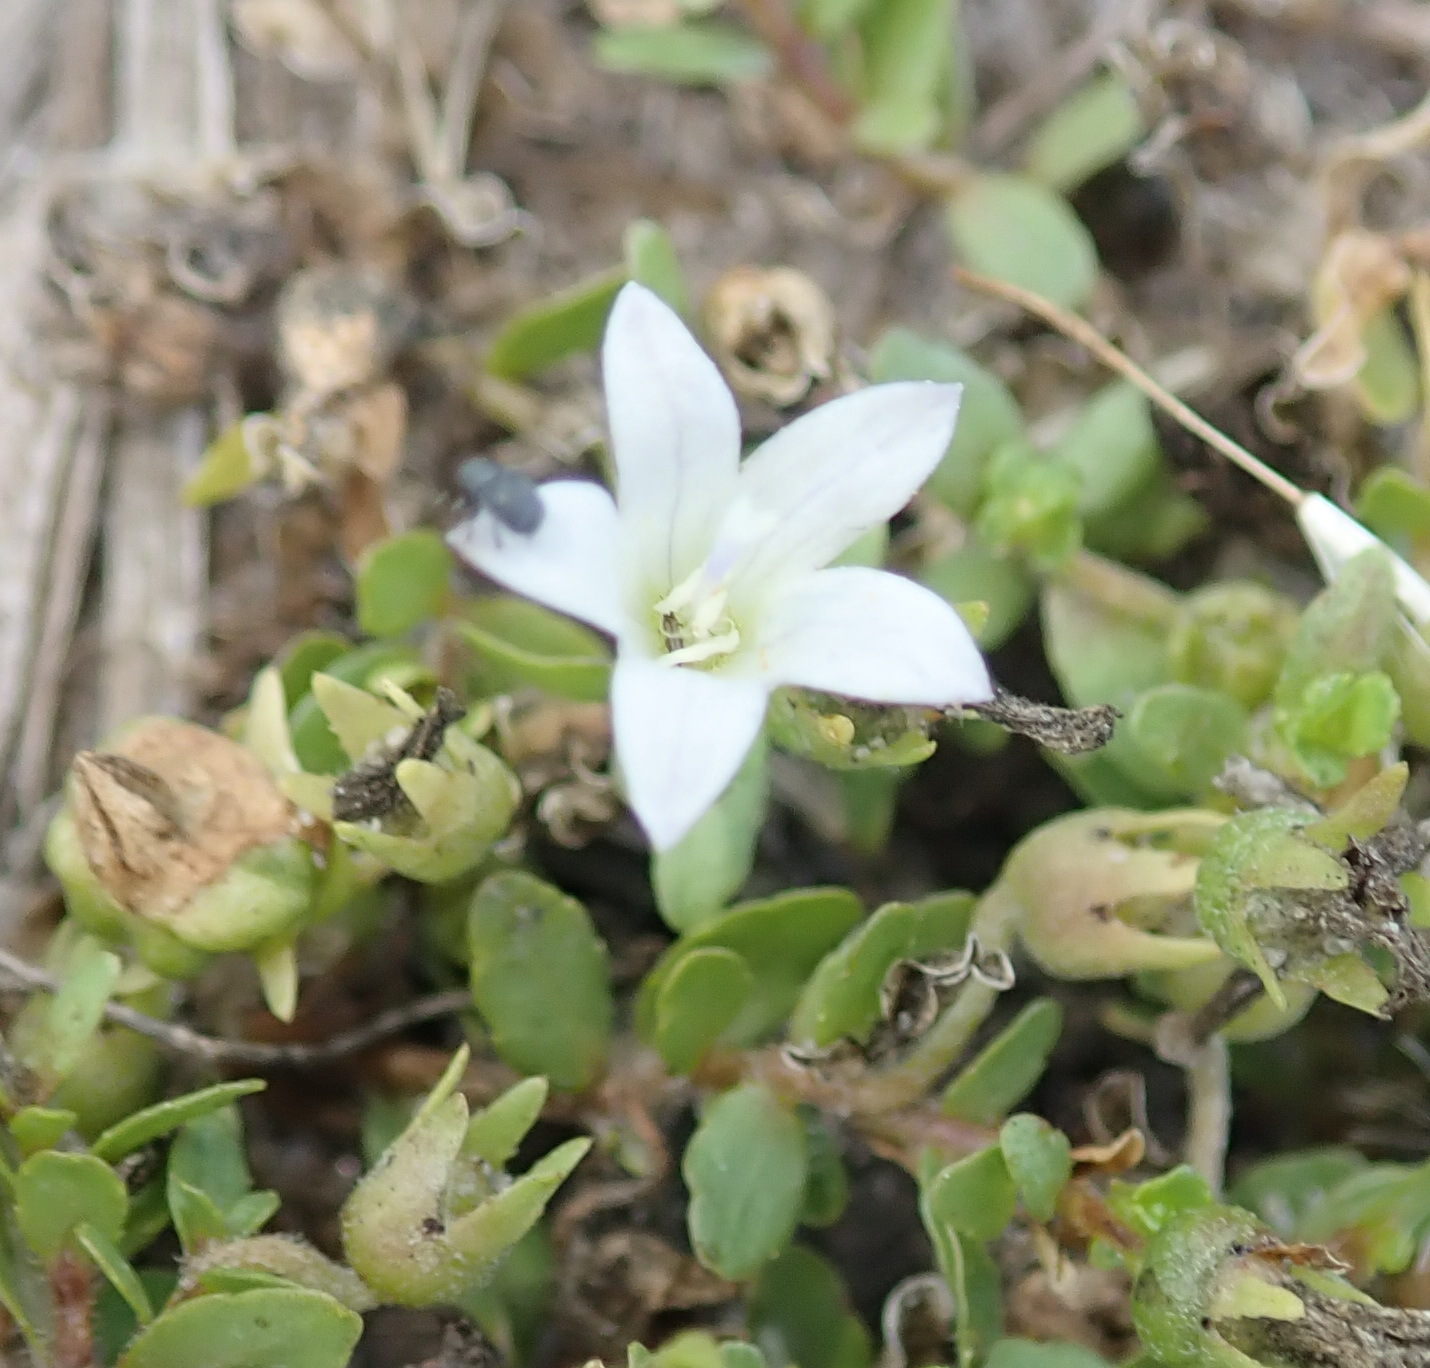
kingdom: Plantae
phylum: Tracheophyta
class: Magnoliopsida
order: Asterales
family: Campanulaceae
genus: Wahlenbergia
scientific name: Wahlenbergia procumbens
